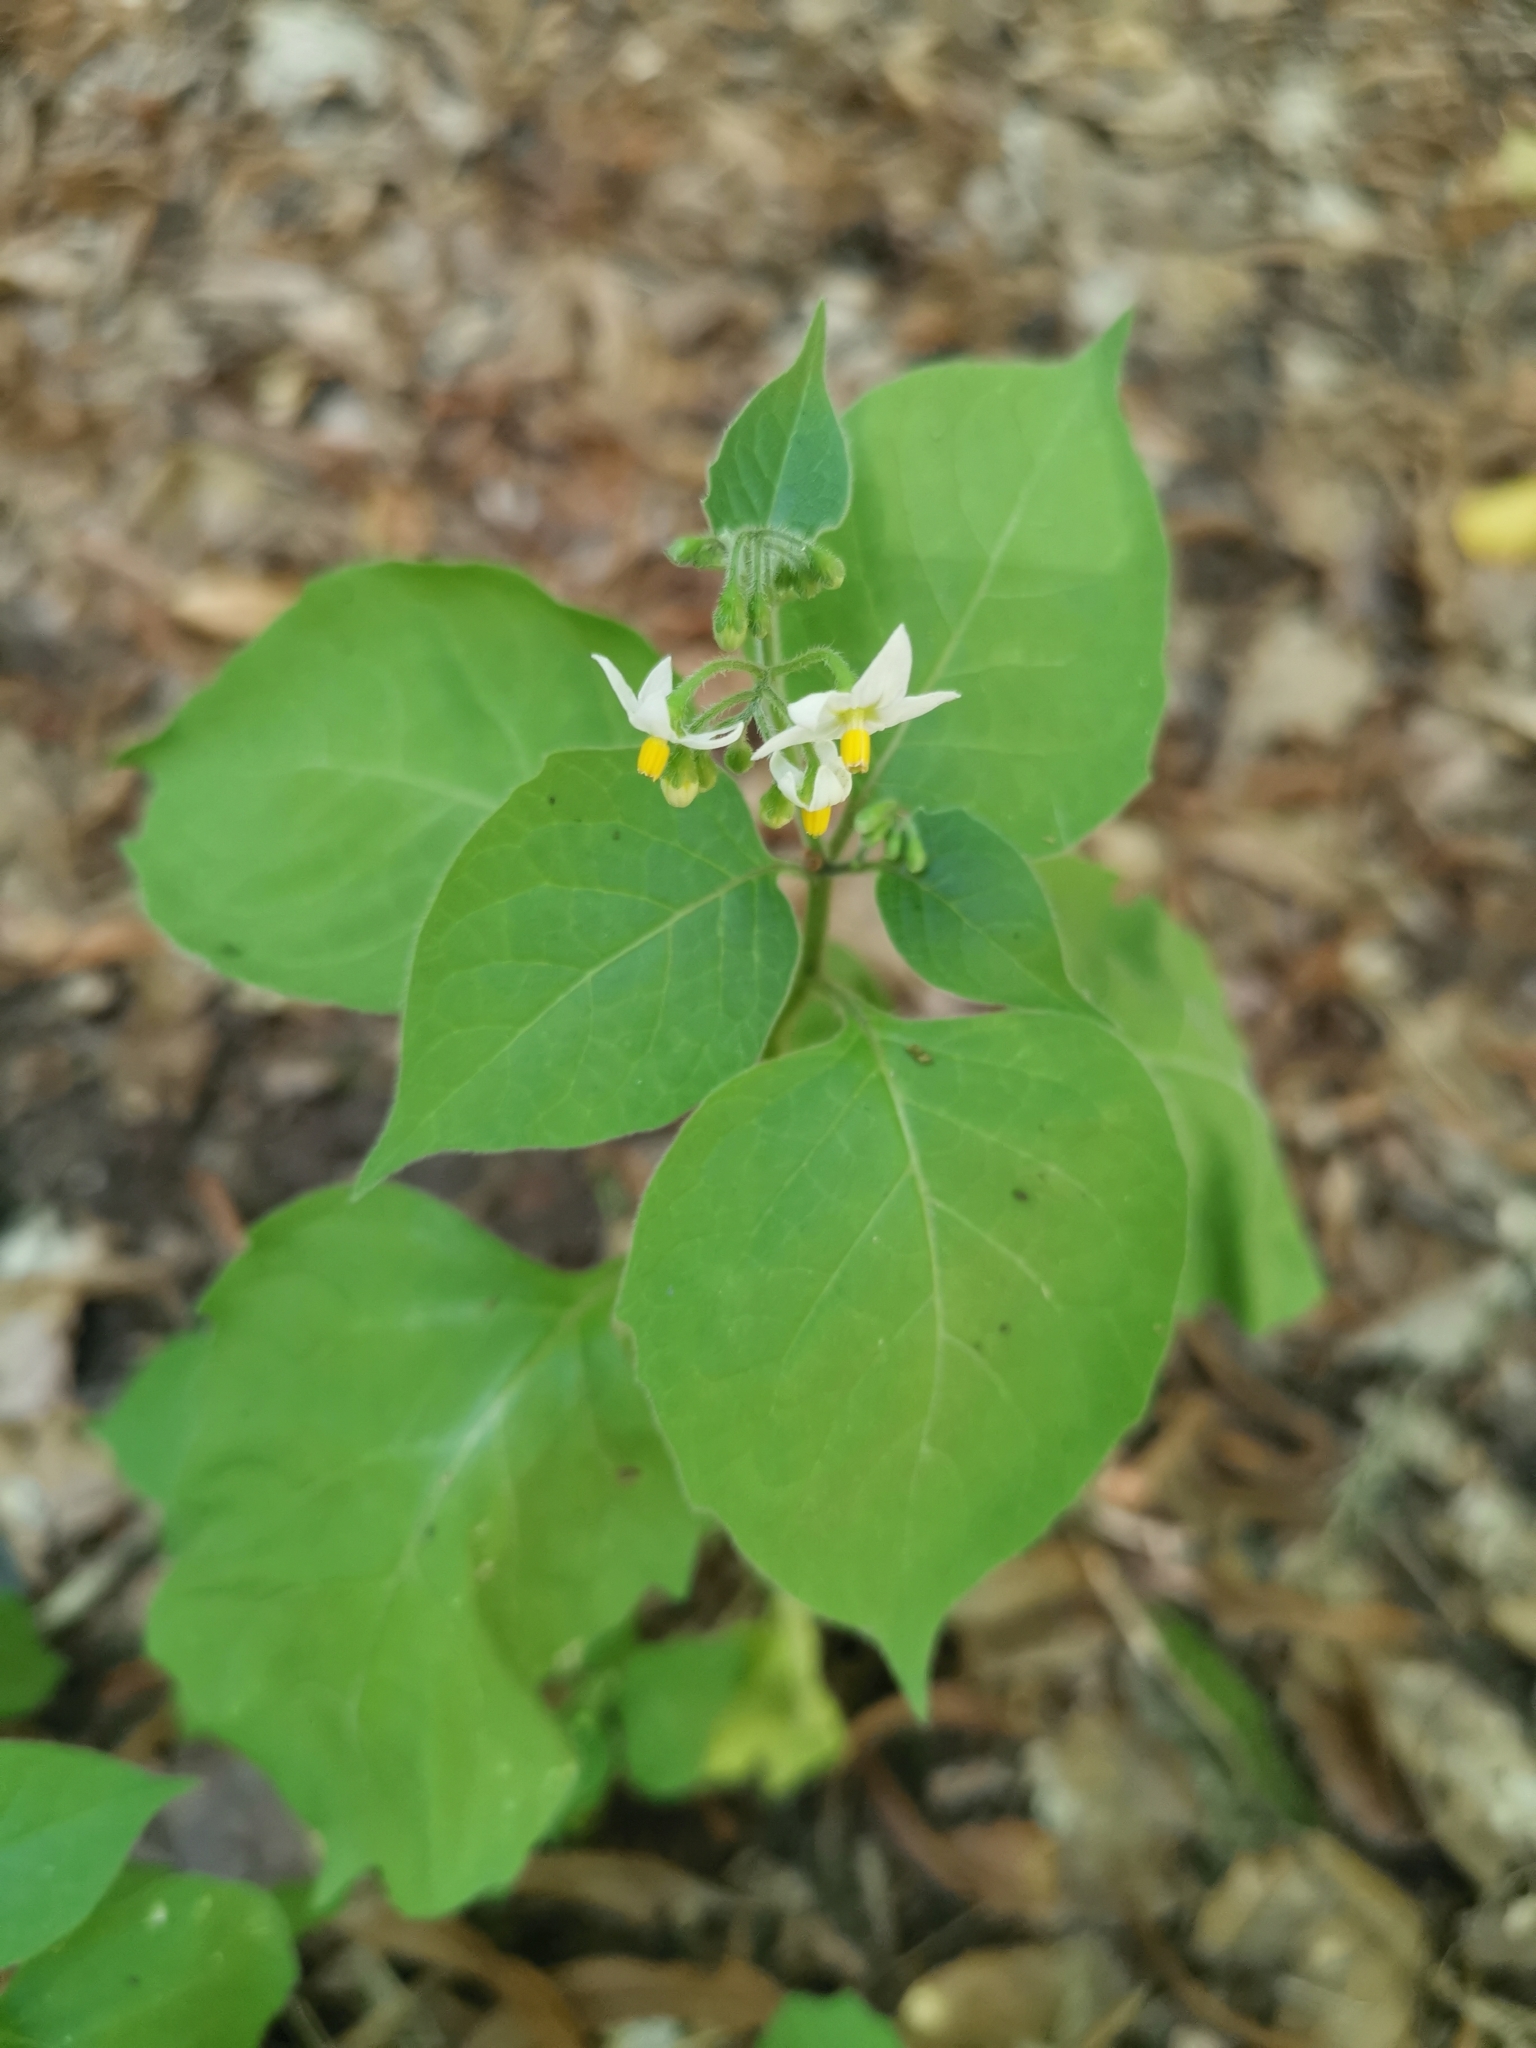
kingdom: Plantae
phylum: Tracheophyta
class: Magnoliopsida
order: Solanales
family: Solanaceae
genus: Solanum
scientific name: Solanum nigrum
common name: Black nightshade
